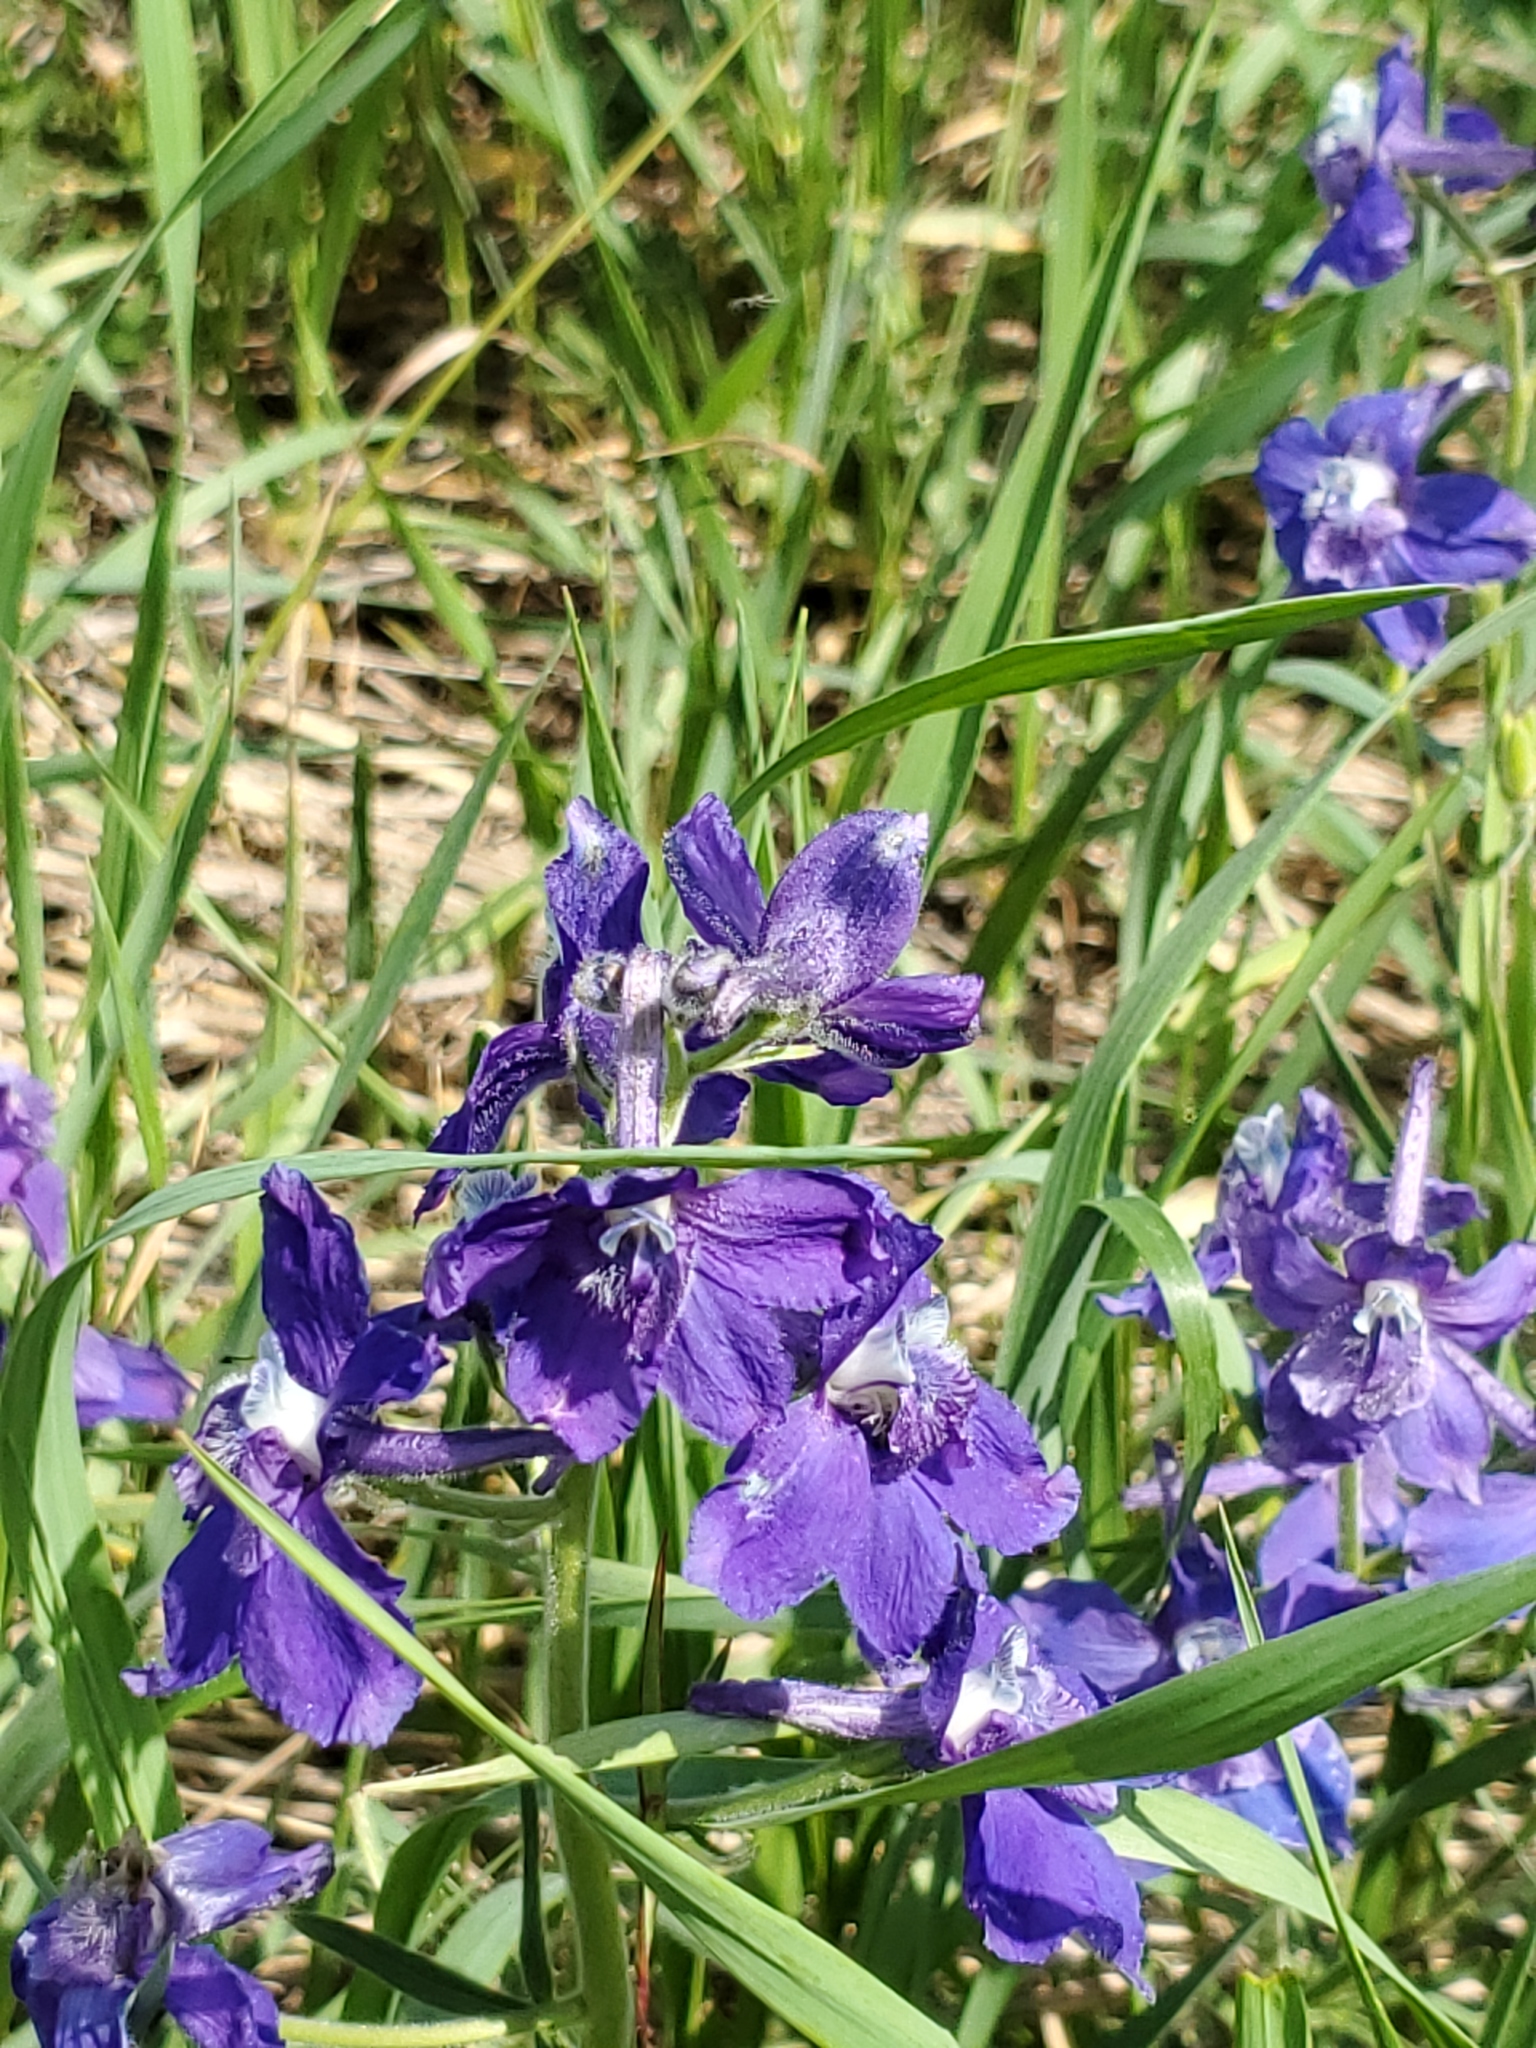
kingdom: Plantae
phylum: Tracheophyta
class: Magnoliopsida
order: Ranunculales
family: Ranunculaceae
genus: Delphinium
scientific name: Delphinium bicolor
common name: Low larkspur
